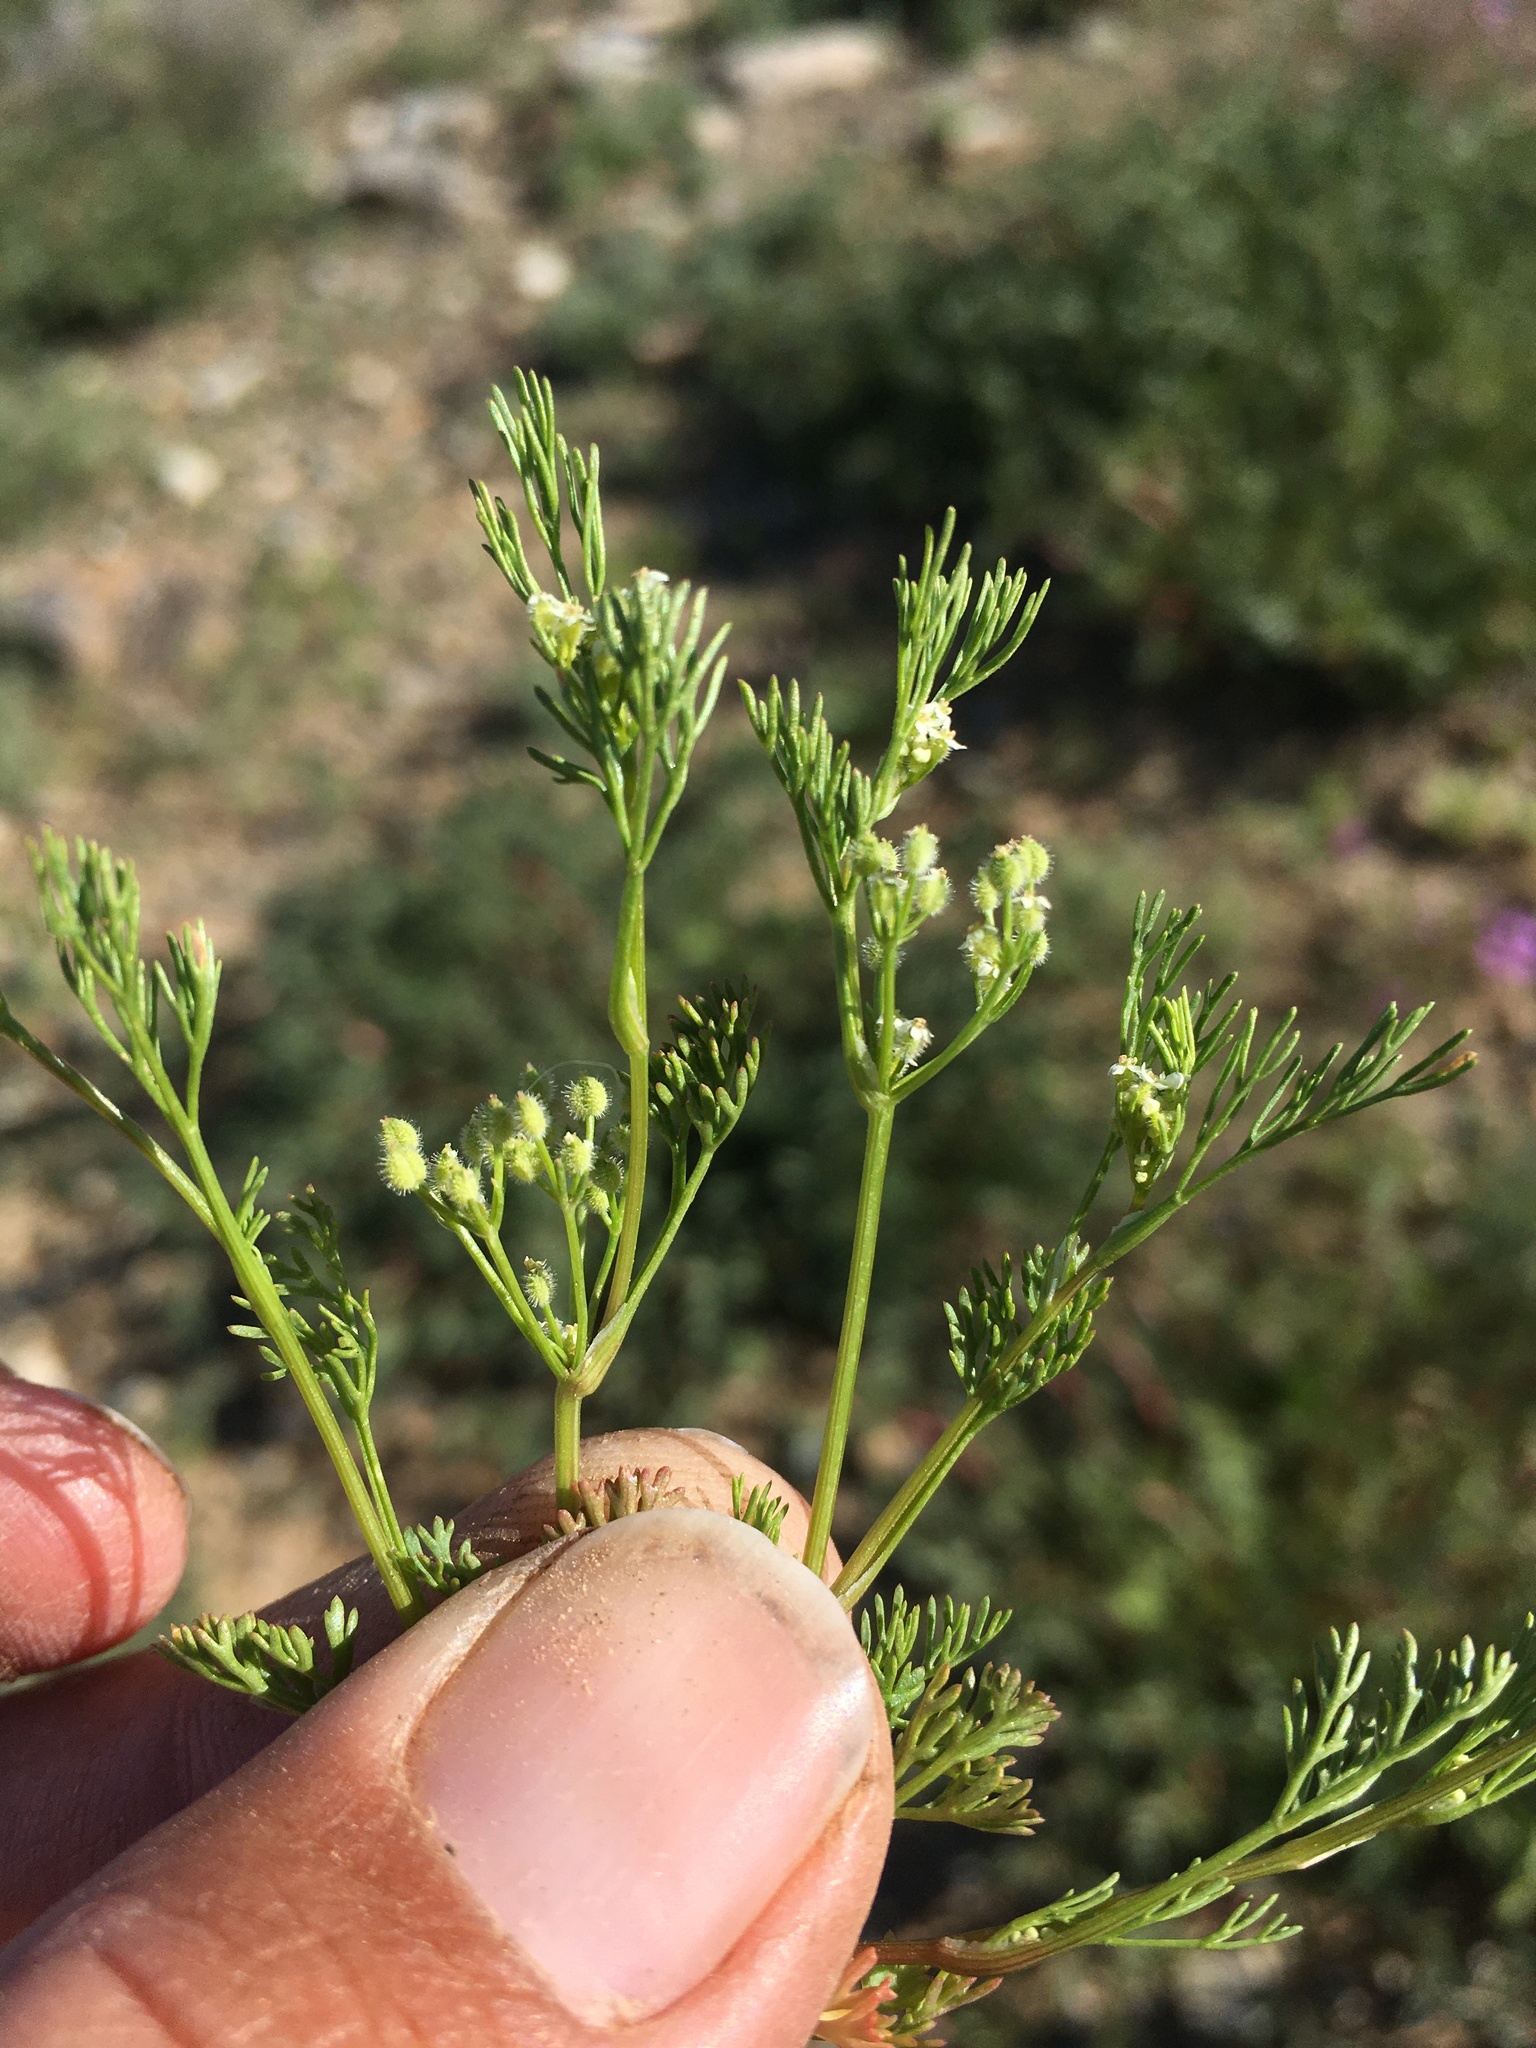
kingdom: Plantae
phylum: Tracheophyta
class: Magnoliopsida
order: Apiales
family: Apiaceae
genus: Spermolepis
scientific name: Spermolepis lateriflora
